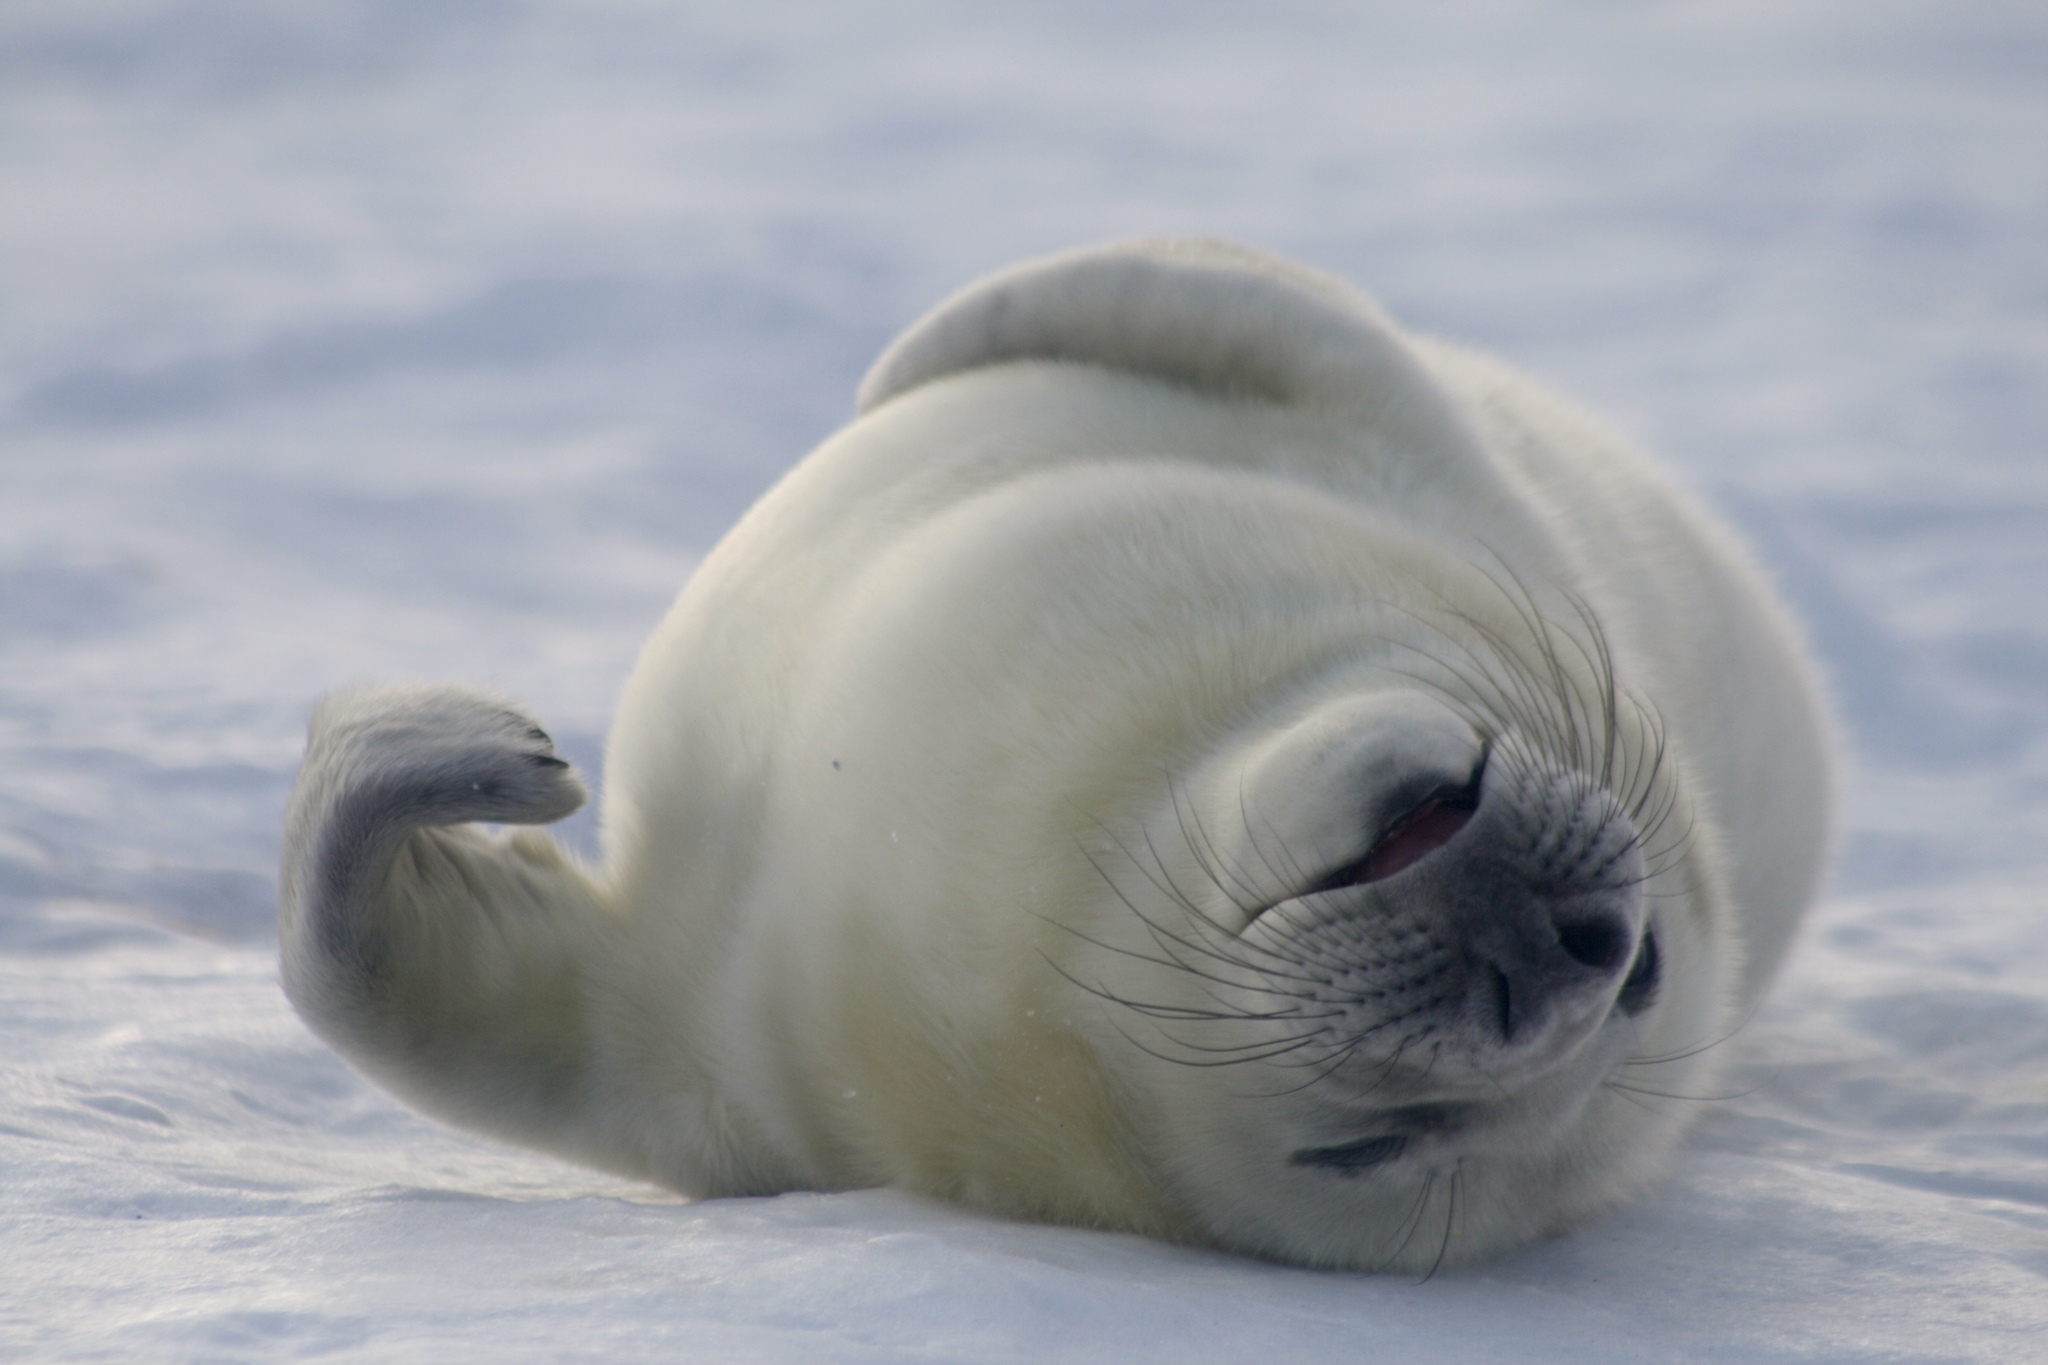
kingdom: Animalia
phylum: Chordata
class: Mammalia
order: Carnivora
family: Phocidae
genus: Halichoerus
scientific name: Halichoerus grypus
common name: Grey seal
